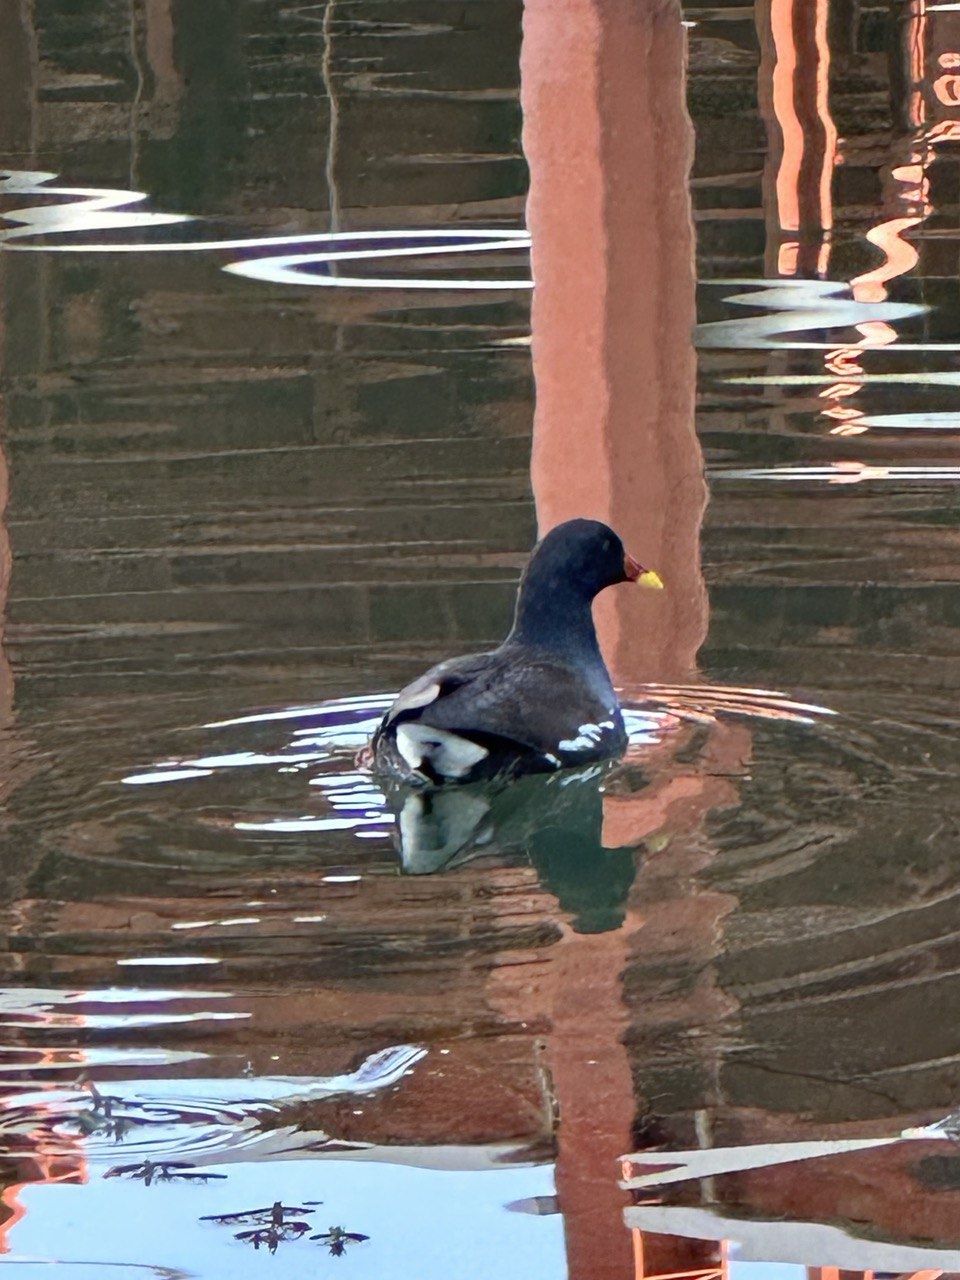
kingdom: Animalia
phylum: Chordata
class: Aves
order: Gruiformes
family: Rallidae
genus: Gallinula
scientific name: Gallinula chloropus
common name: Common moorhen
